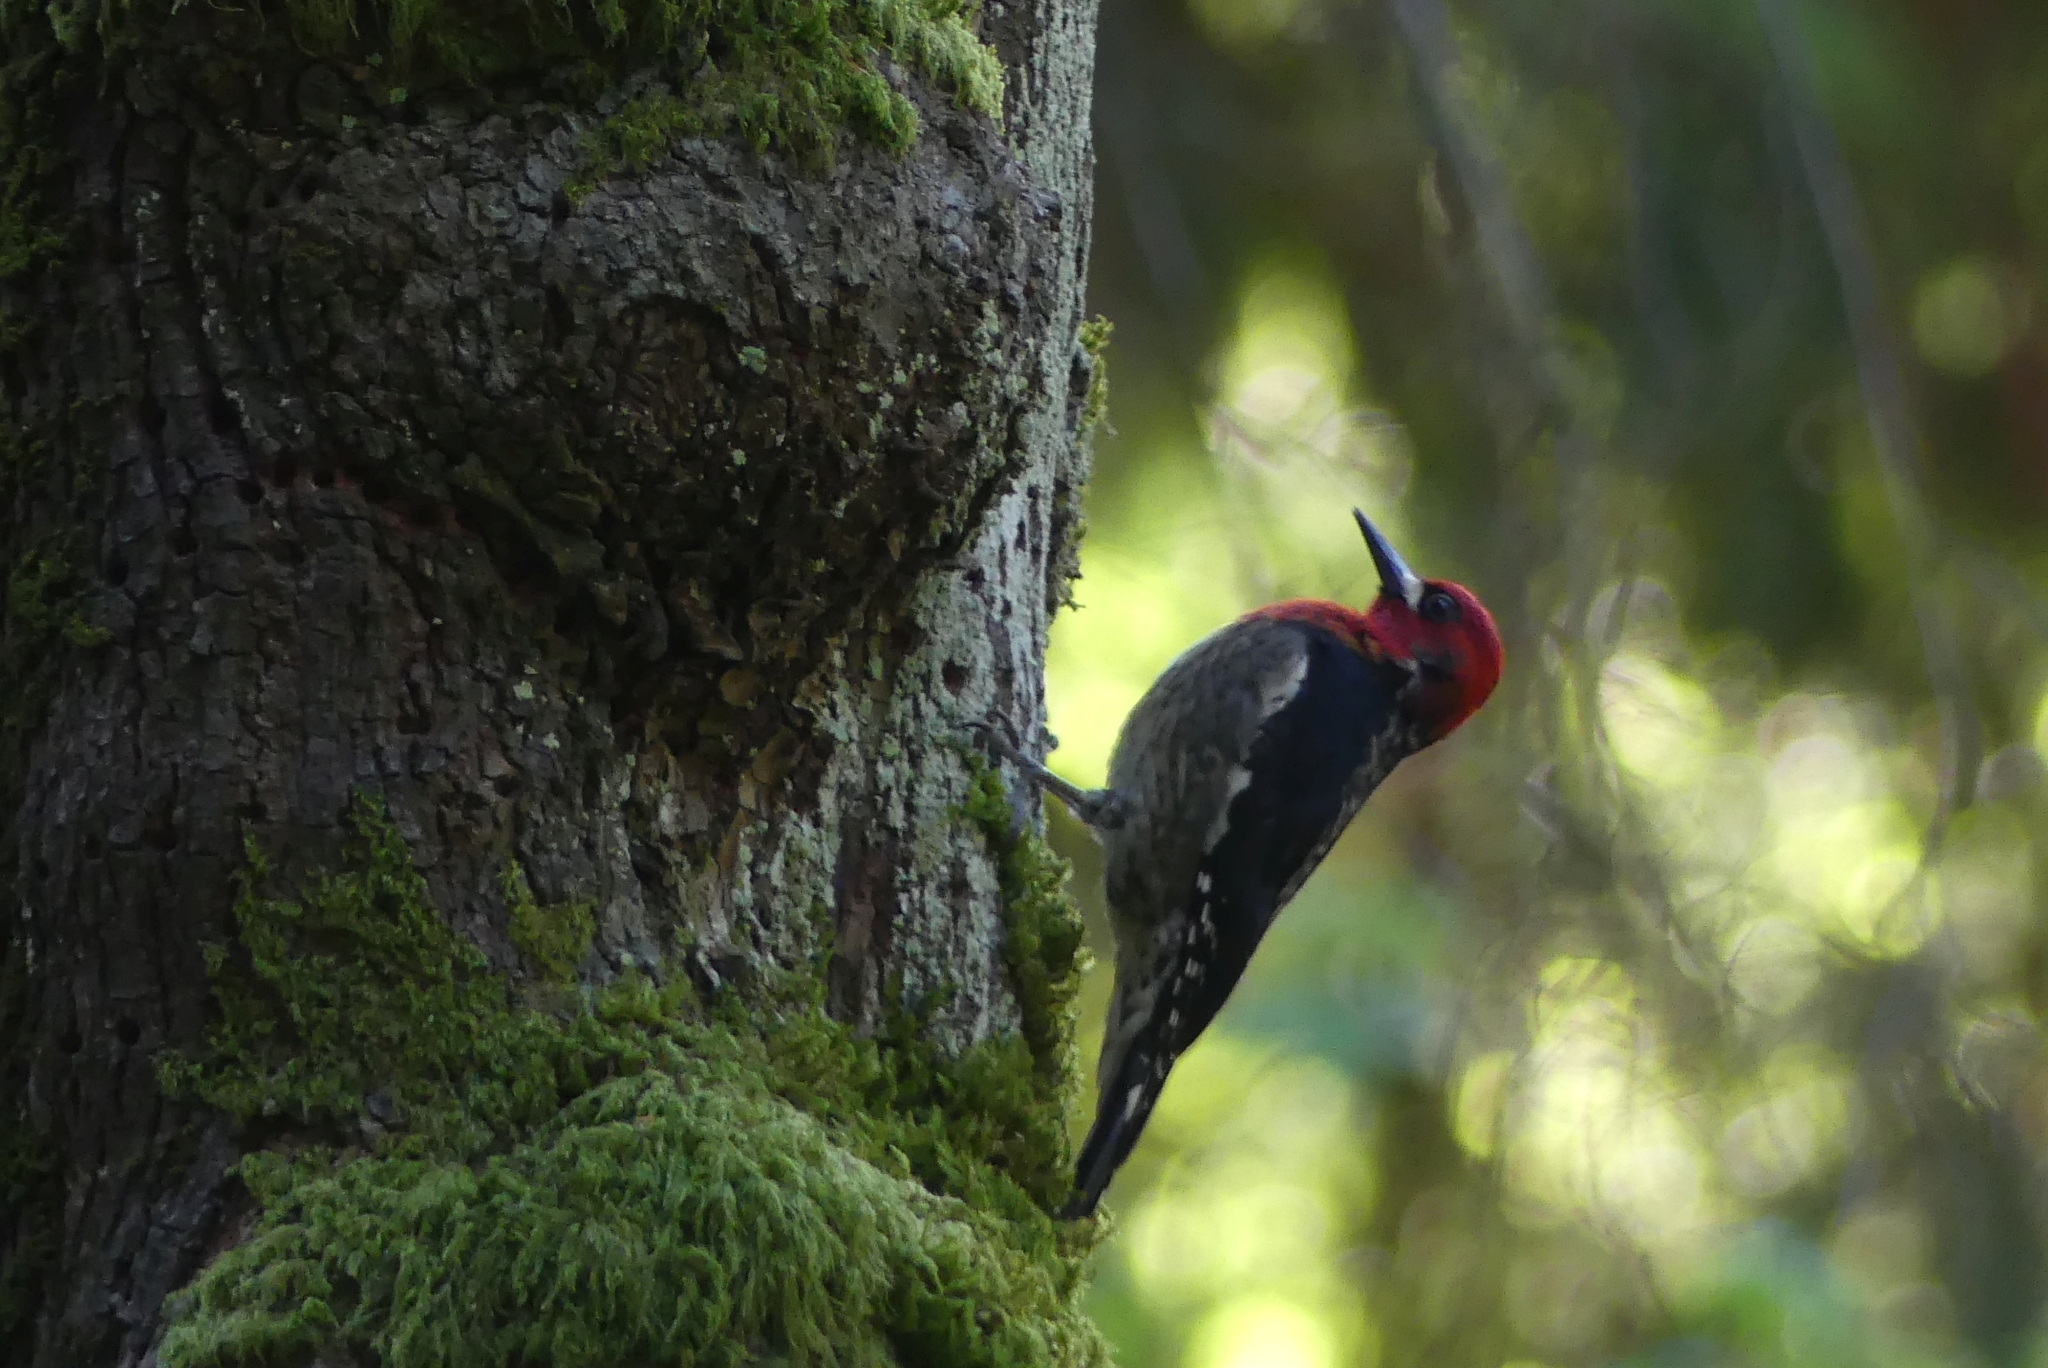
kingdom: Animalia
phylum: Chordata
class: Aves
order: Piciformes
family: Picidae
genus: Sphyrapicus
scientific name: Sphyrapicus ruber
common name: Red-breasted sapsucker
